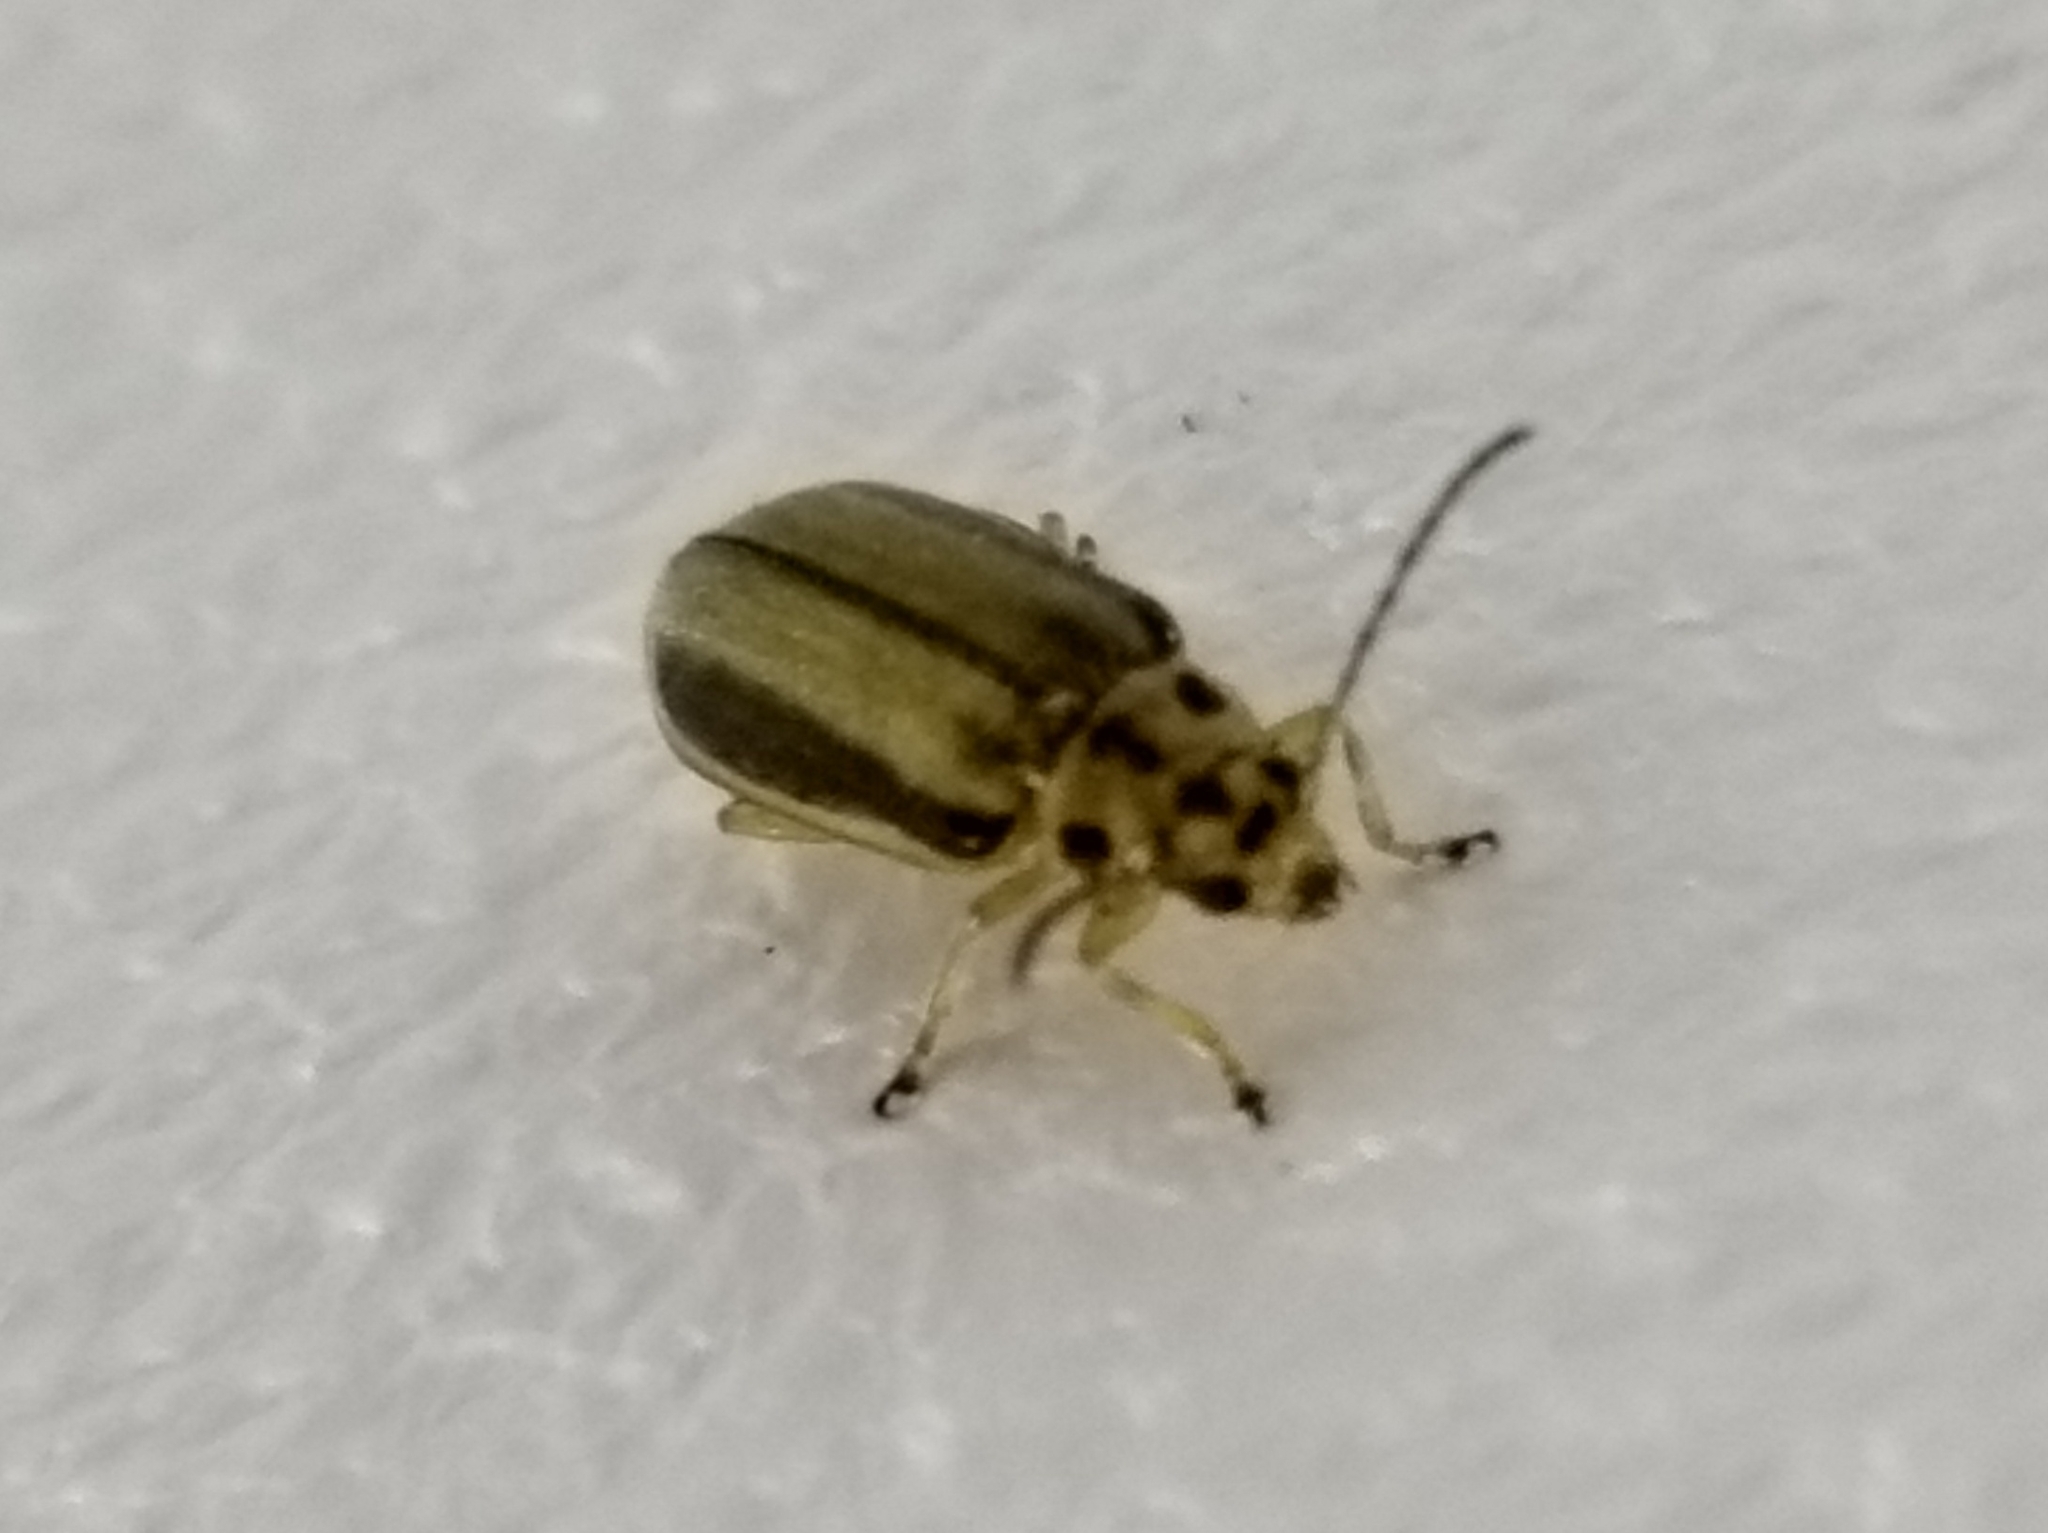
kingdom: Animalia
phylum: Arthropoda
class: Insecta
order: Coleoptera
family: Chrysomelidae
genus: Xanthogaleruca
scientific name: Xanthogaleruca luteola
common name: Elm leaf beetle
